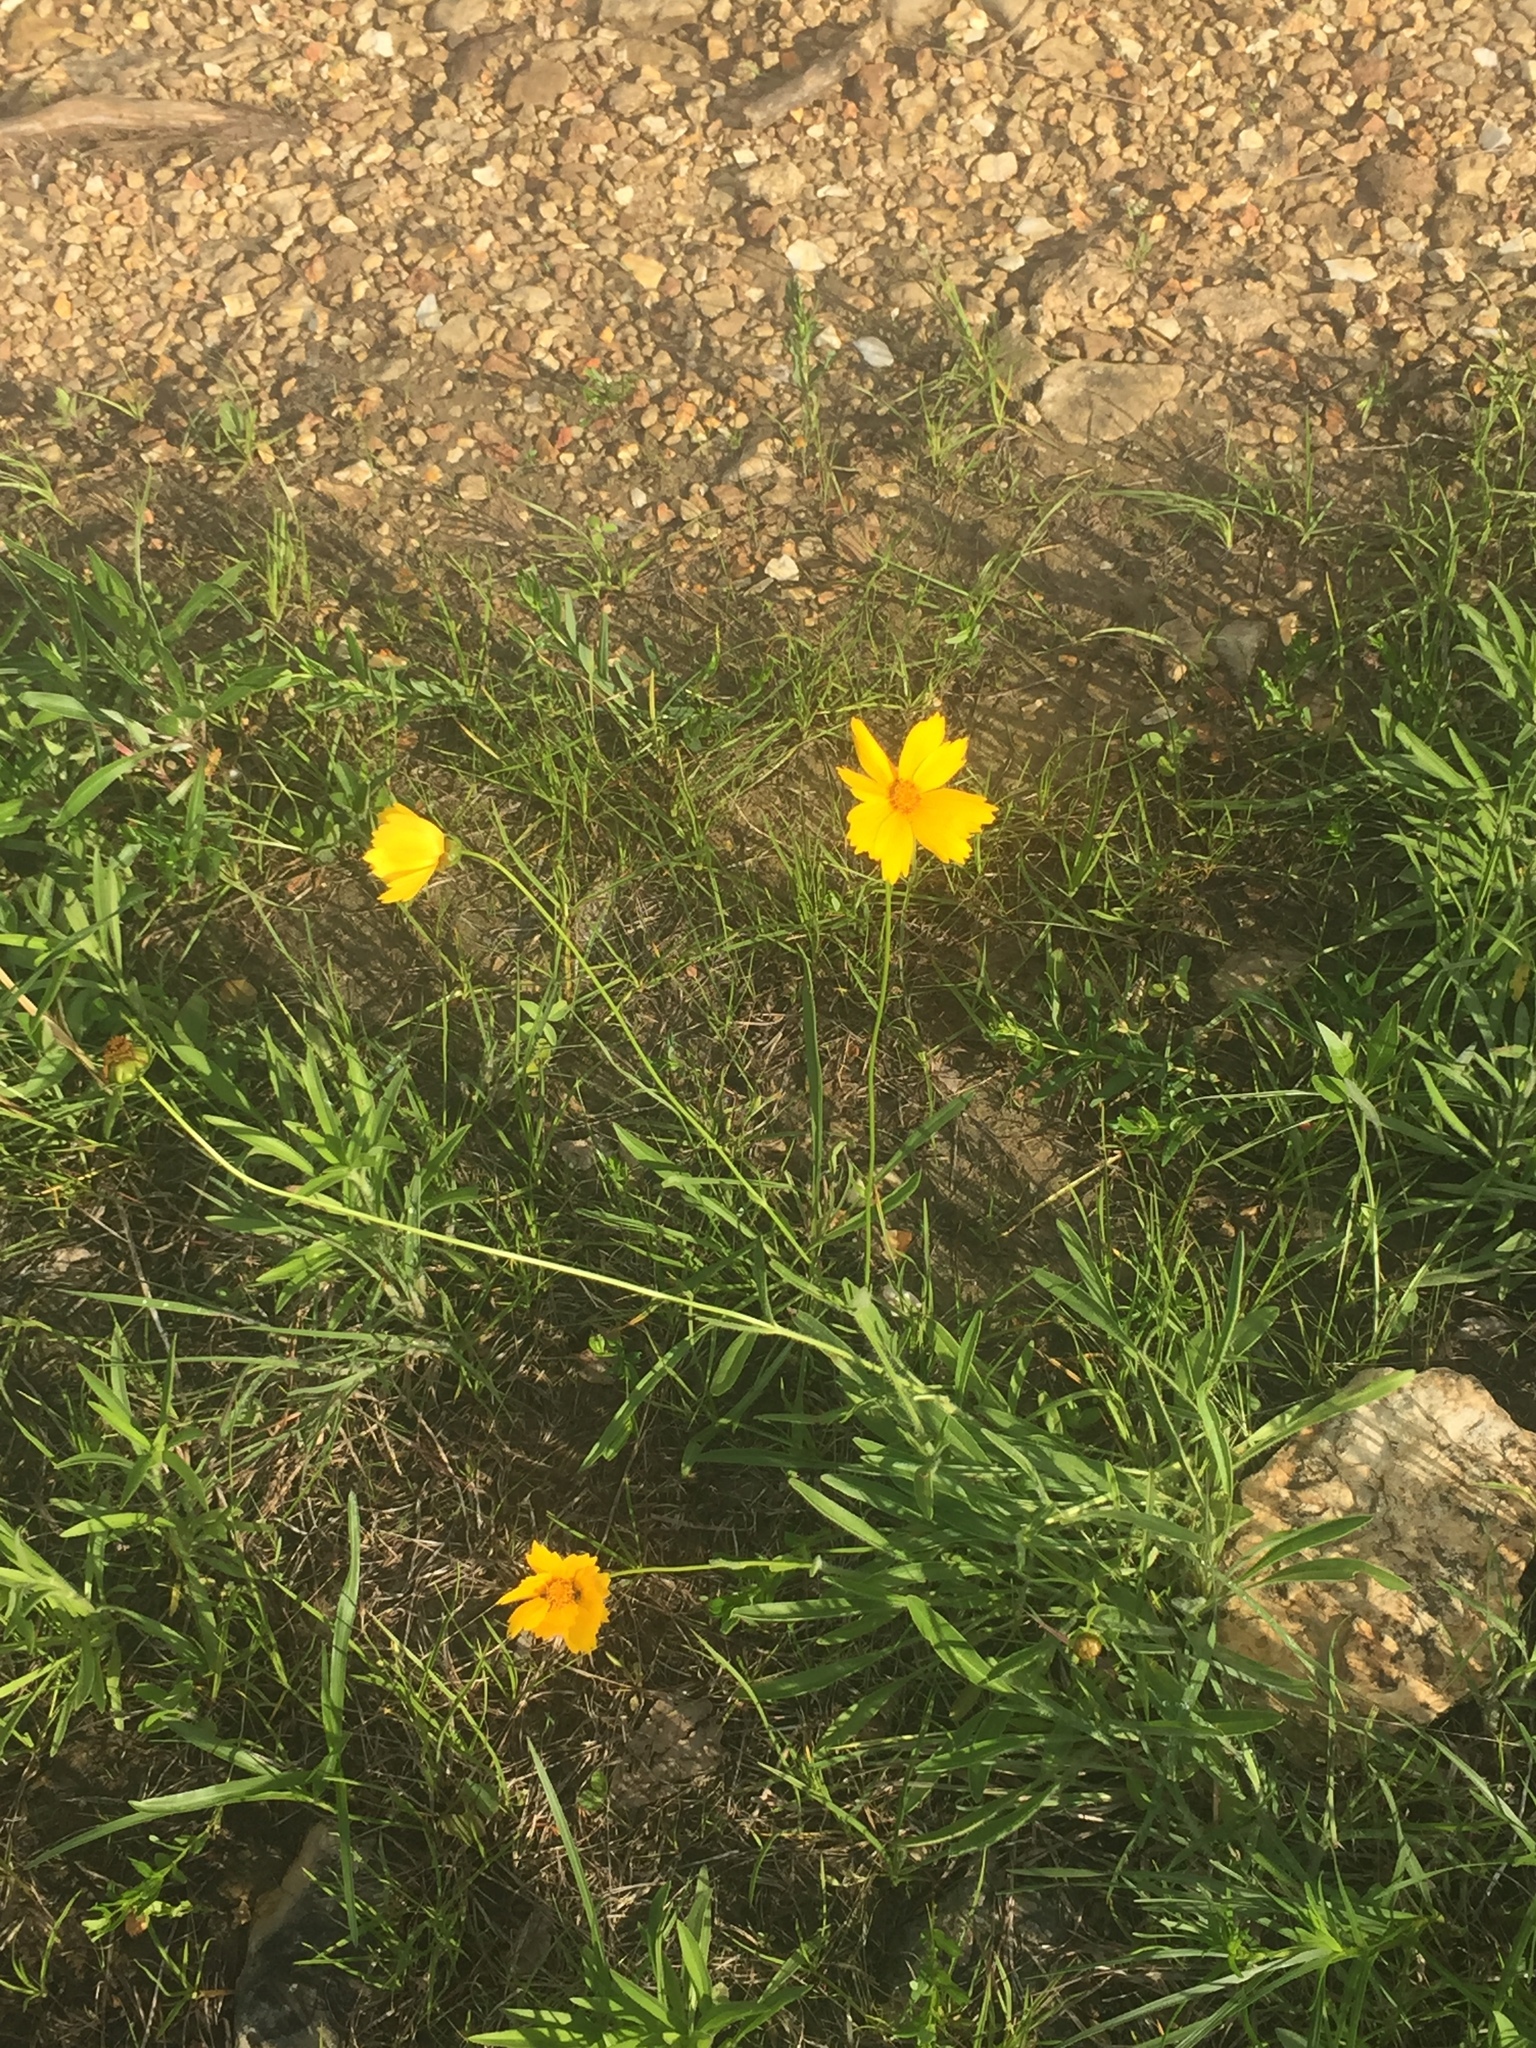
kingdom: Plantae
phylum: Tracheophyta
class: Magnoliopsida
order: Asterales
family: Asteraceae
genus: Coreopsis
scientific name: Coreopsis lanceolata
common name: Garden coreopsis
